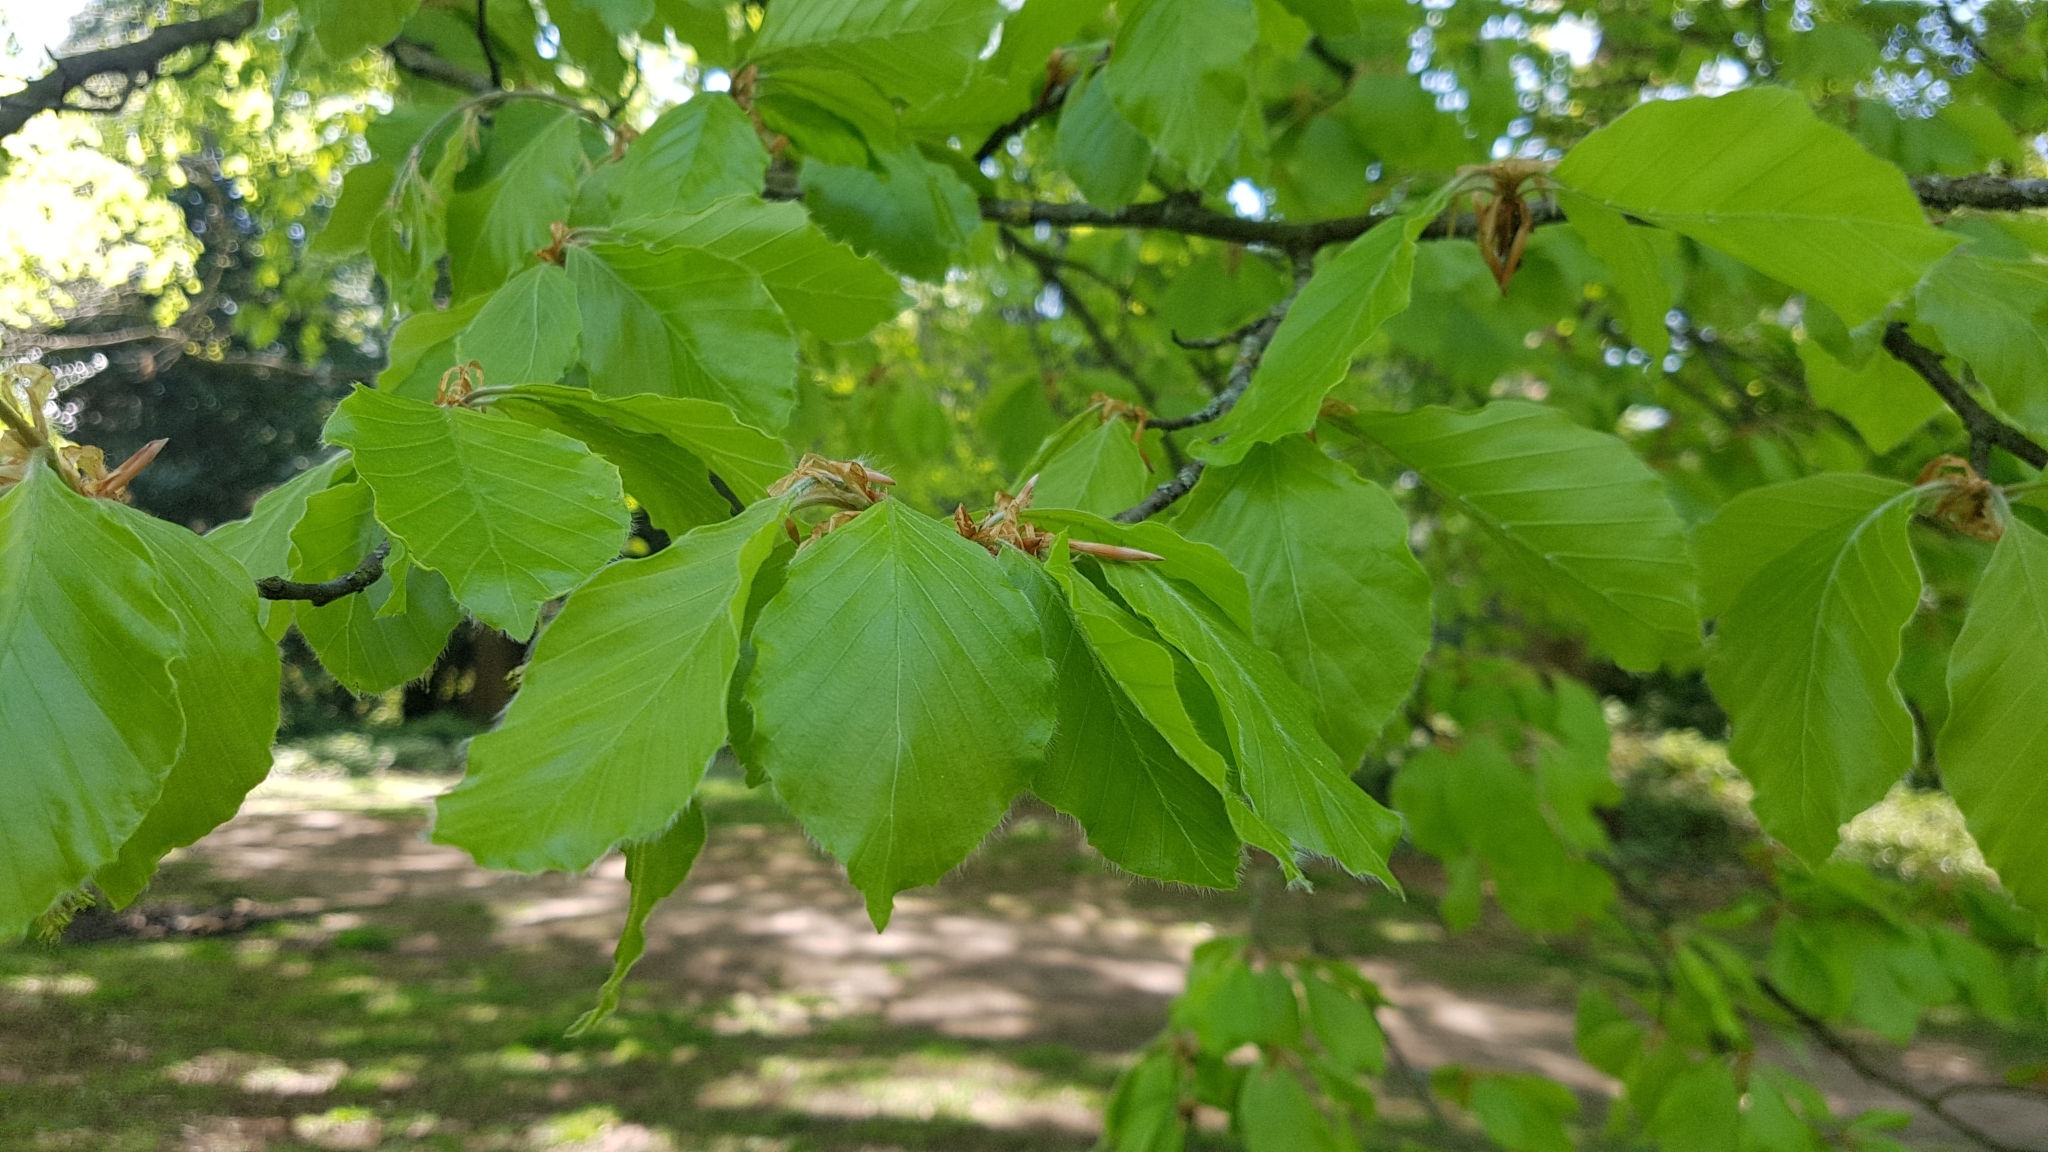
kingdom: Plantae
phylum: Tracheophyta
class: Magnoliopsida
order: Fagales
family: Fagaceae
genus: Fagus
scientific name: Fagus sylvatica
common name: Beech
